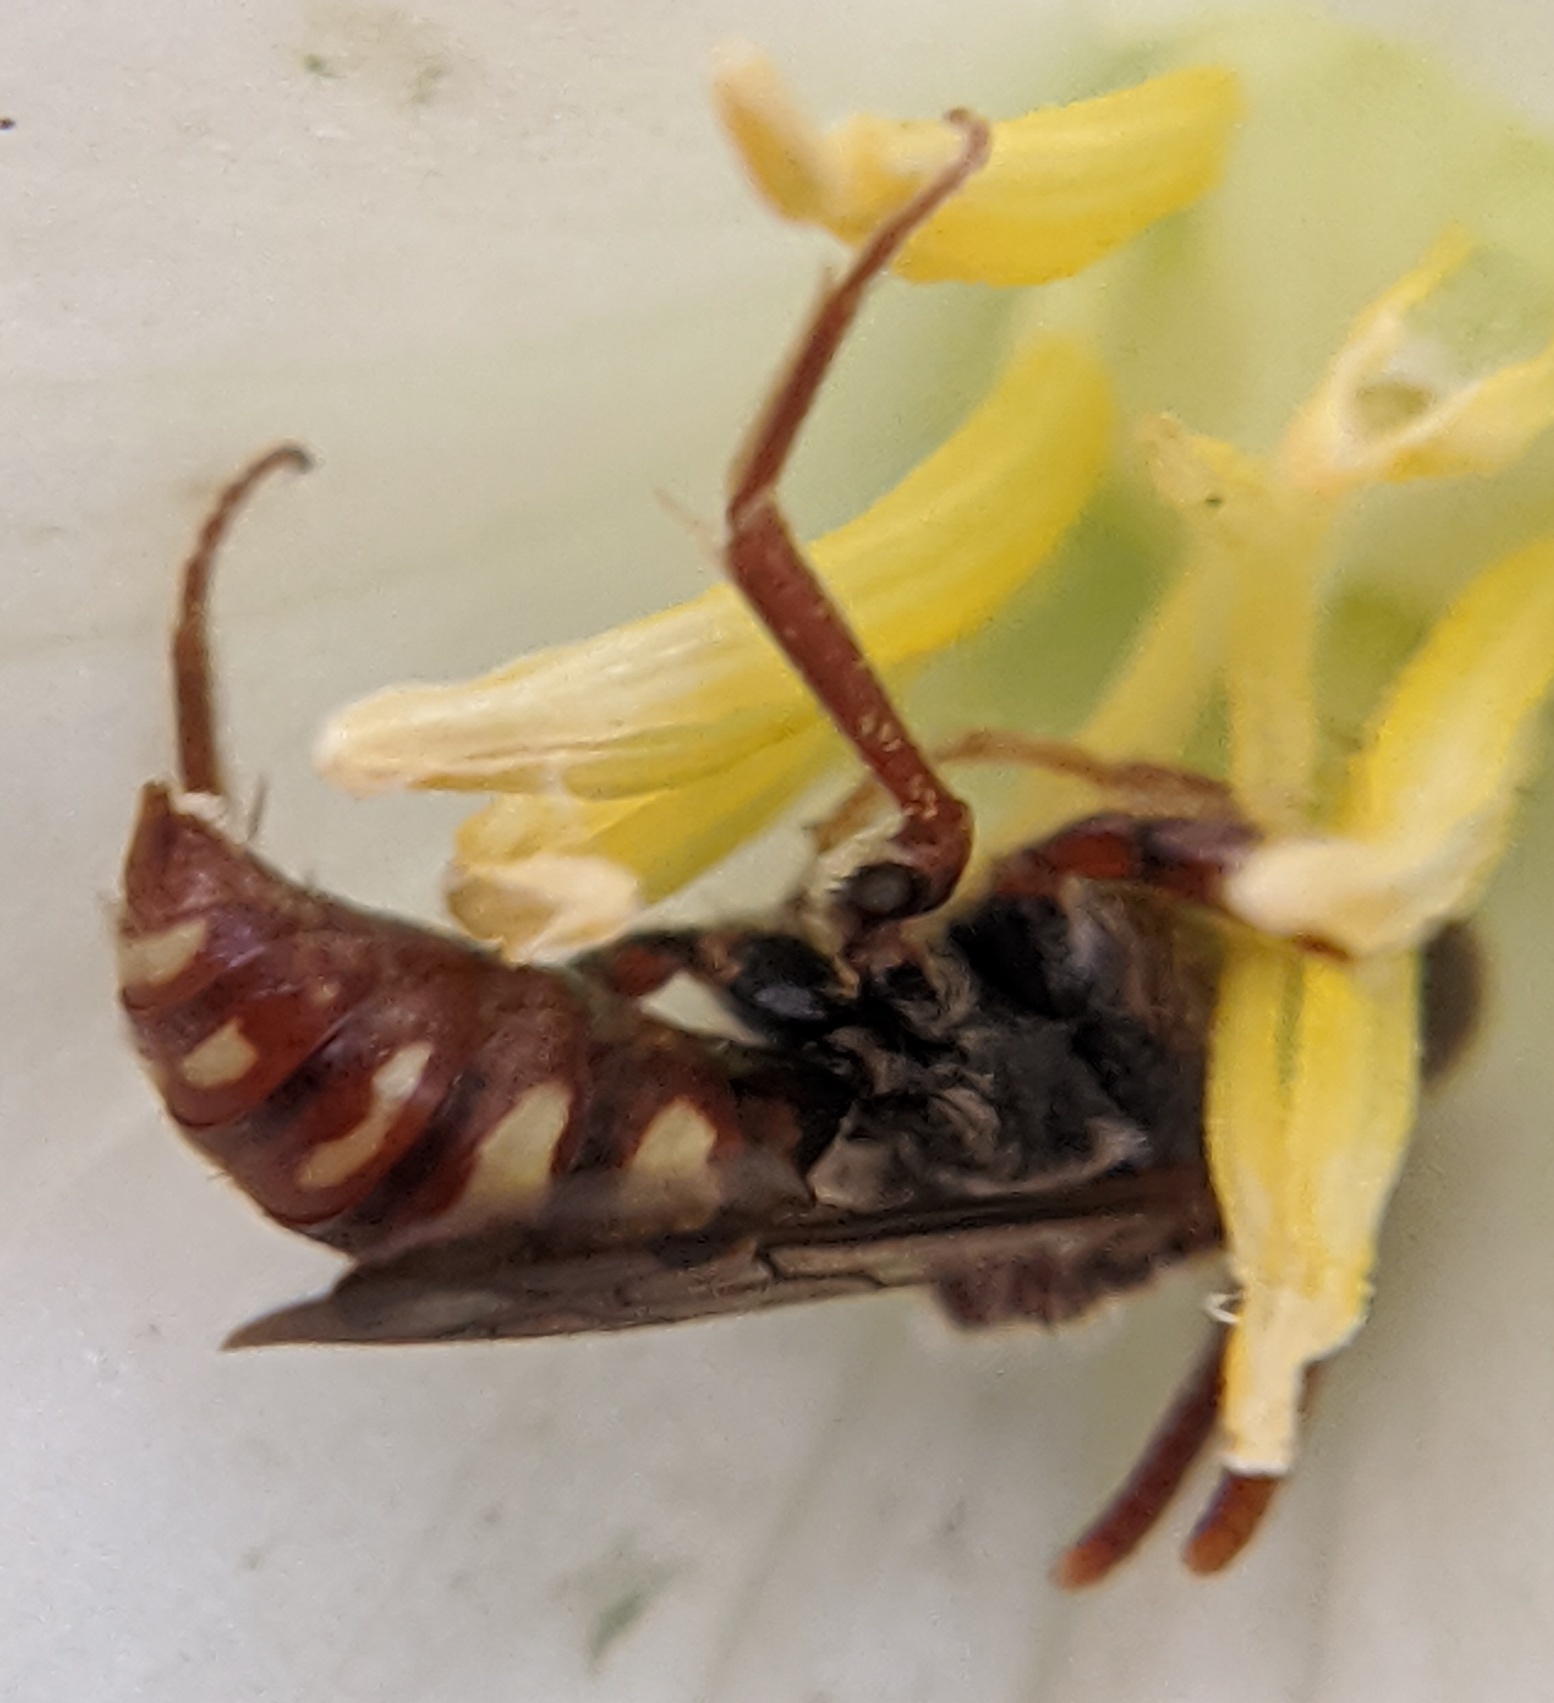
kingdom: Animalia
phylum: Arthropoda
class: Insecta
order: Hymenoptera
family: Apidae
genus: Nomada
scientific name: Nomada
